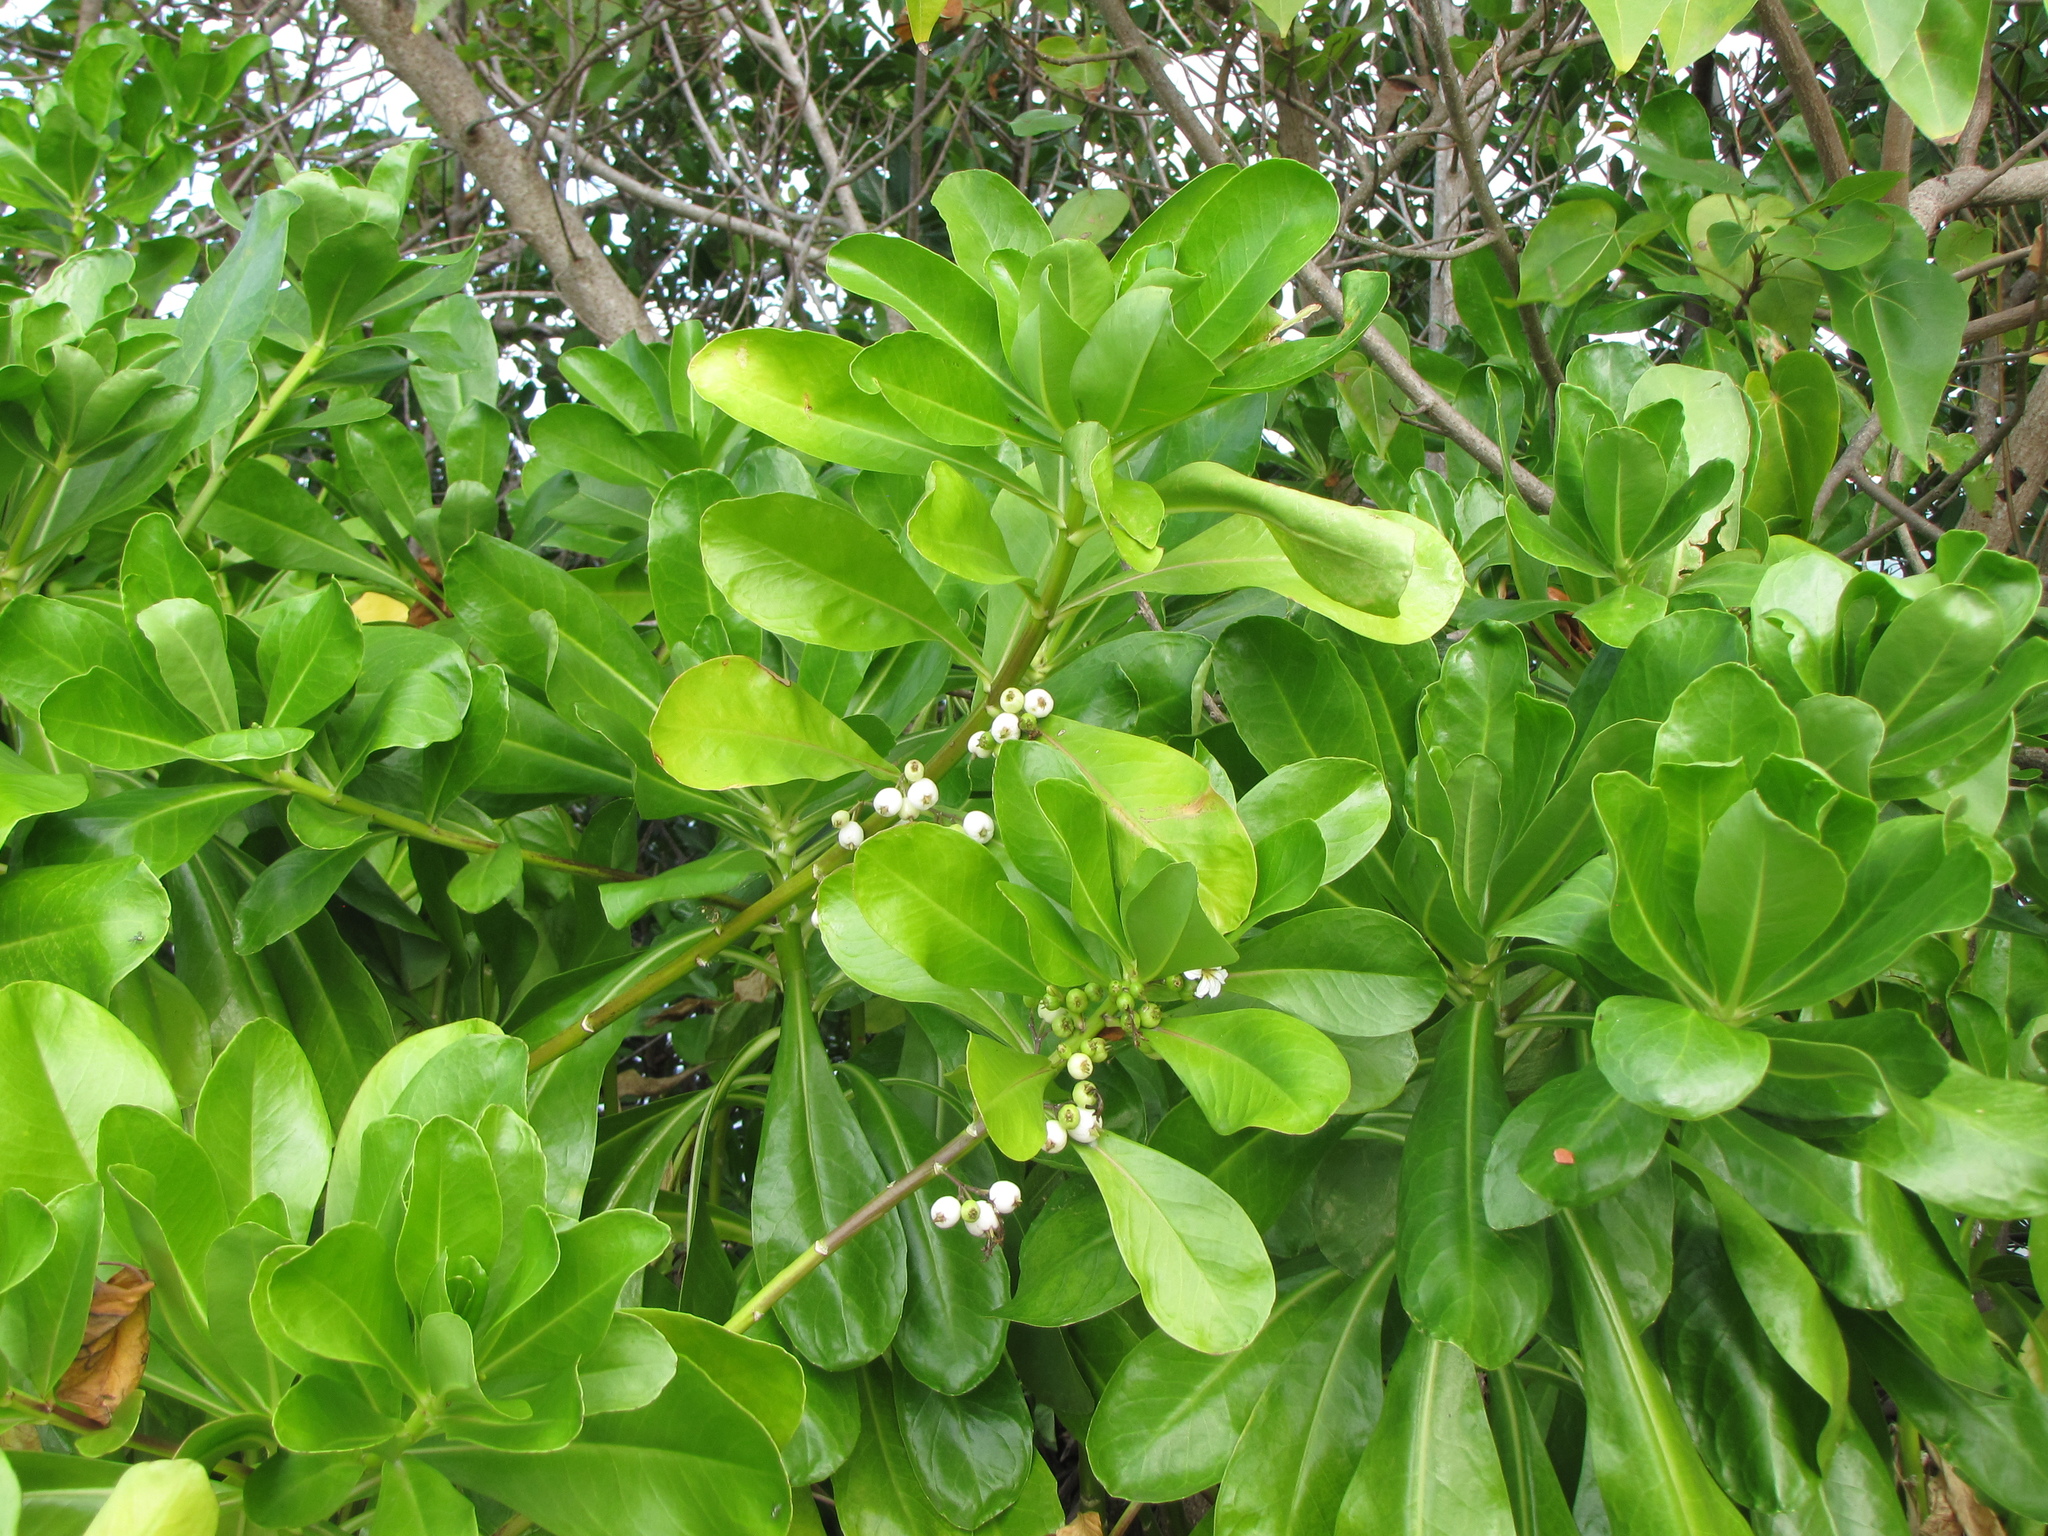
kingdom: Plantae
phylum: Tracheophyta
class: Magnoliopsida
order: Asterales
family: Goodeniaceae
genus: Scaevola
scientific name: Scaevola taccada
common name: Sea lettucetree
